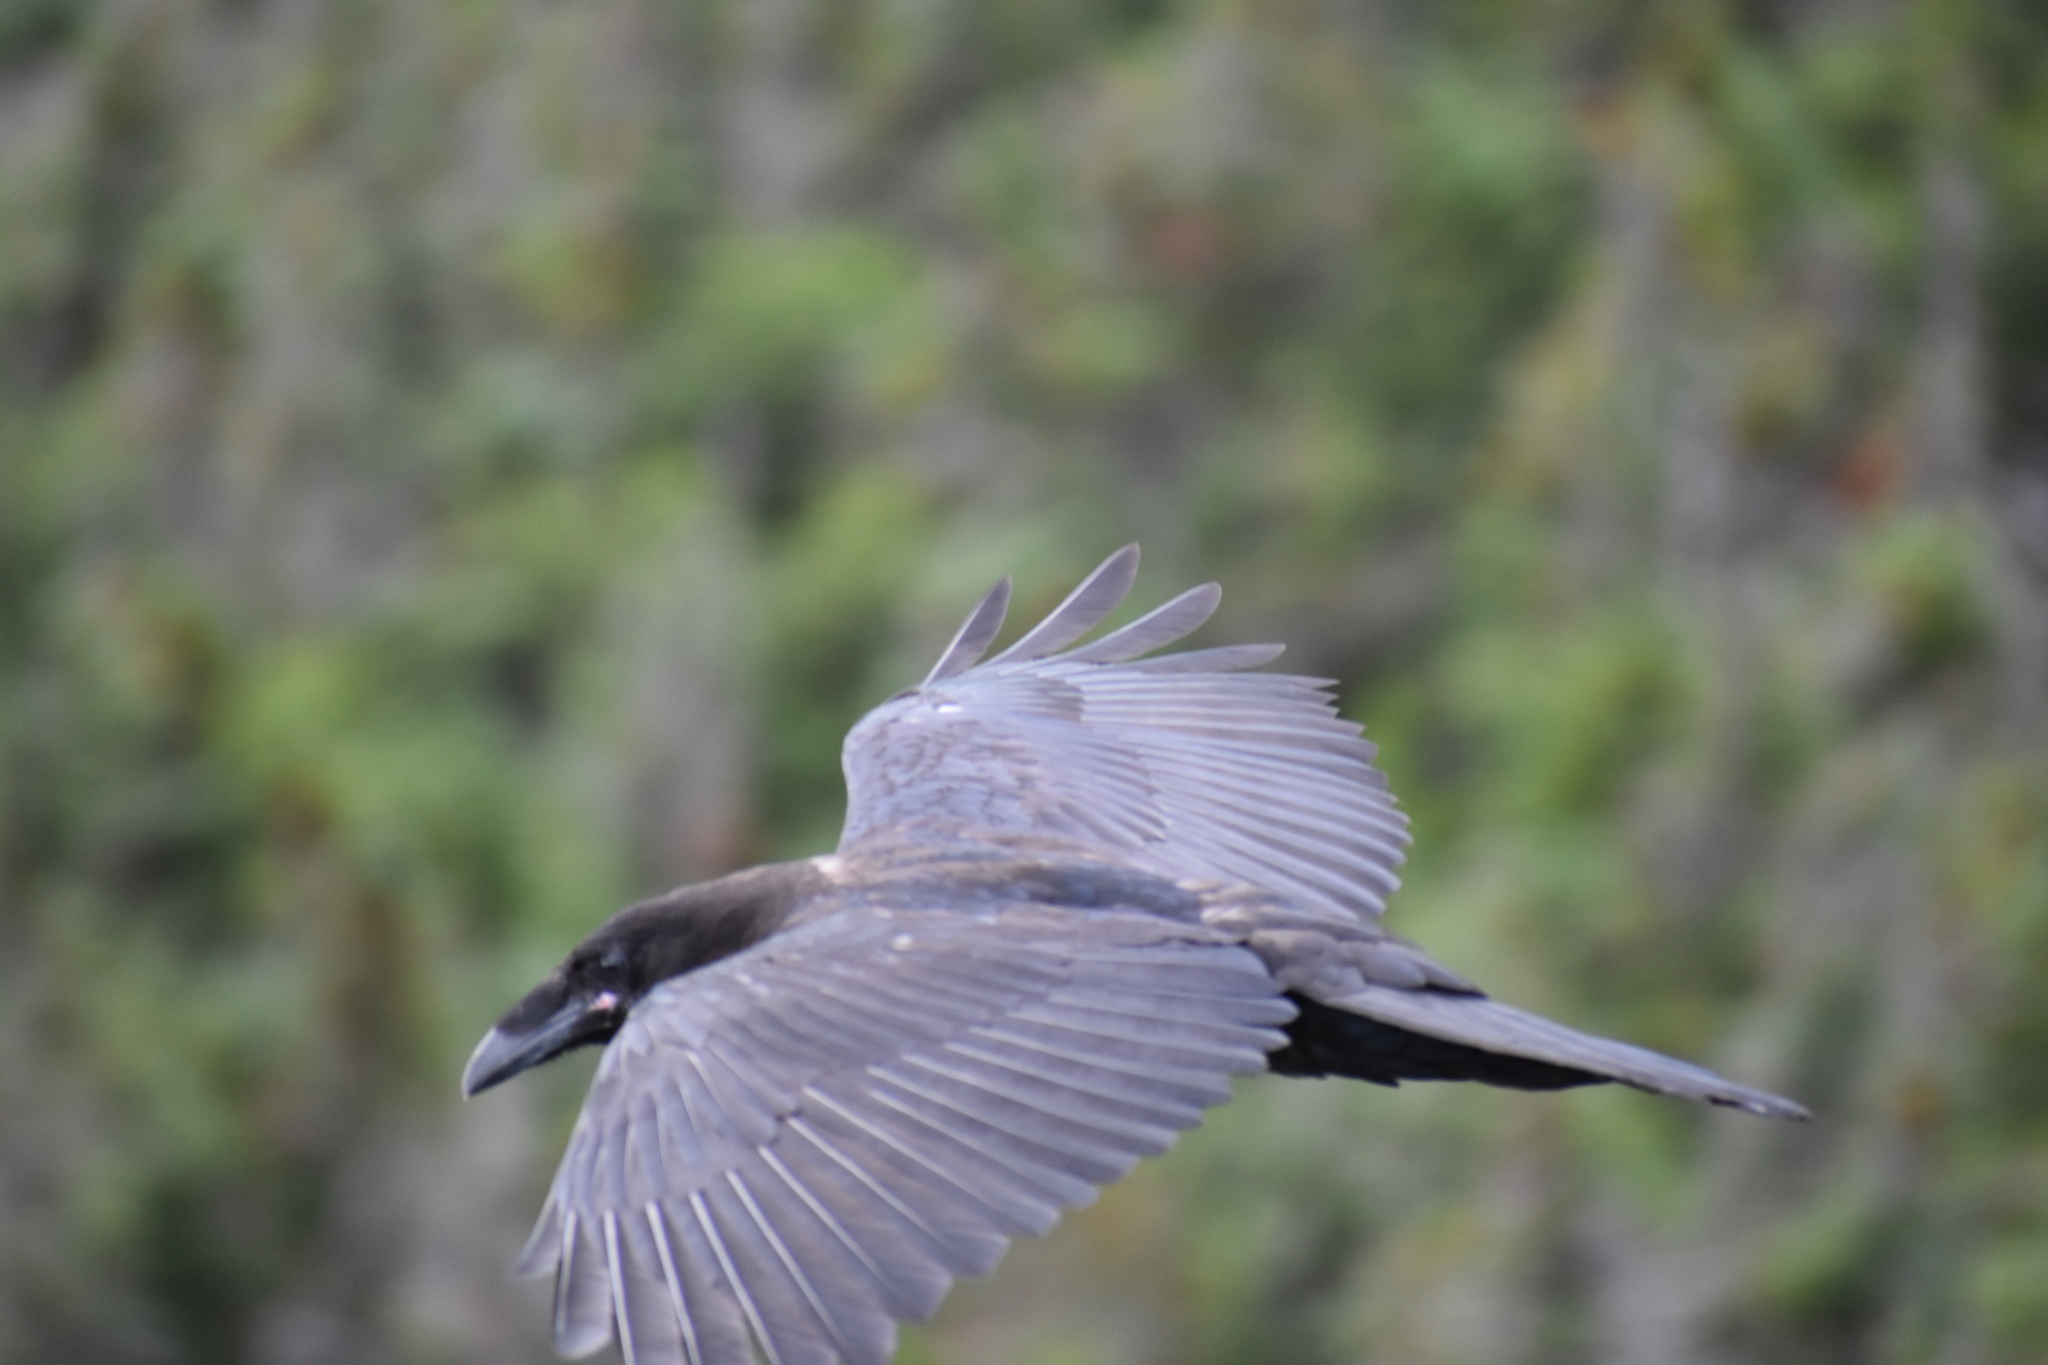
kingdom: Animalia
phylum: Chordata
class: Aves
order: Passeriformes
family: Corvidae
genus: Corvus
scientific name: Corvus corax
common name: Common raven
